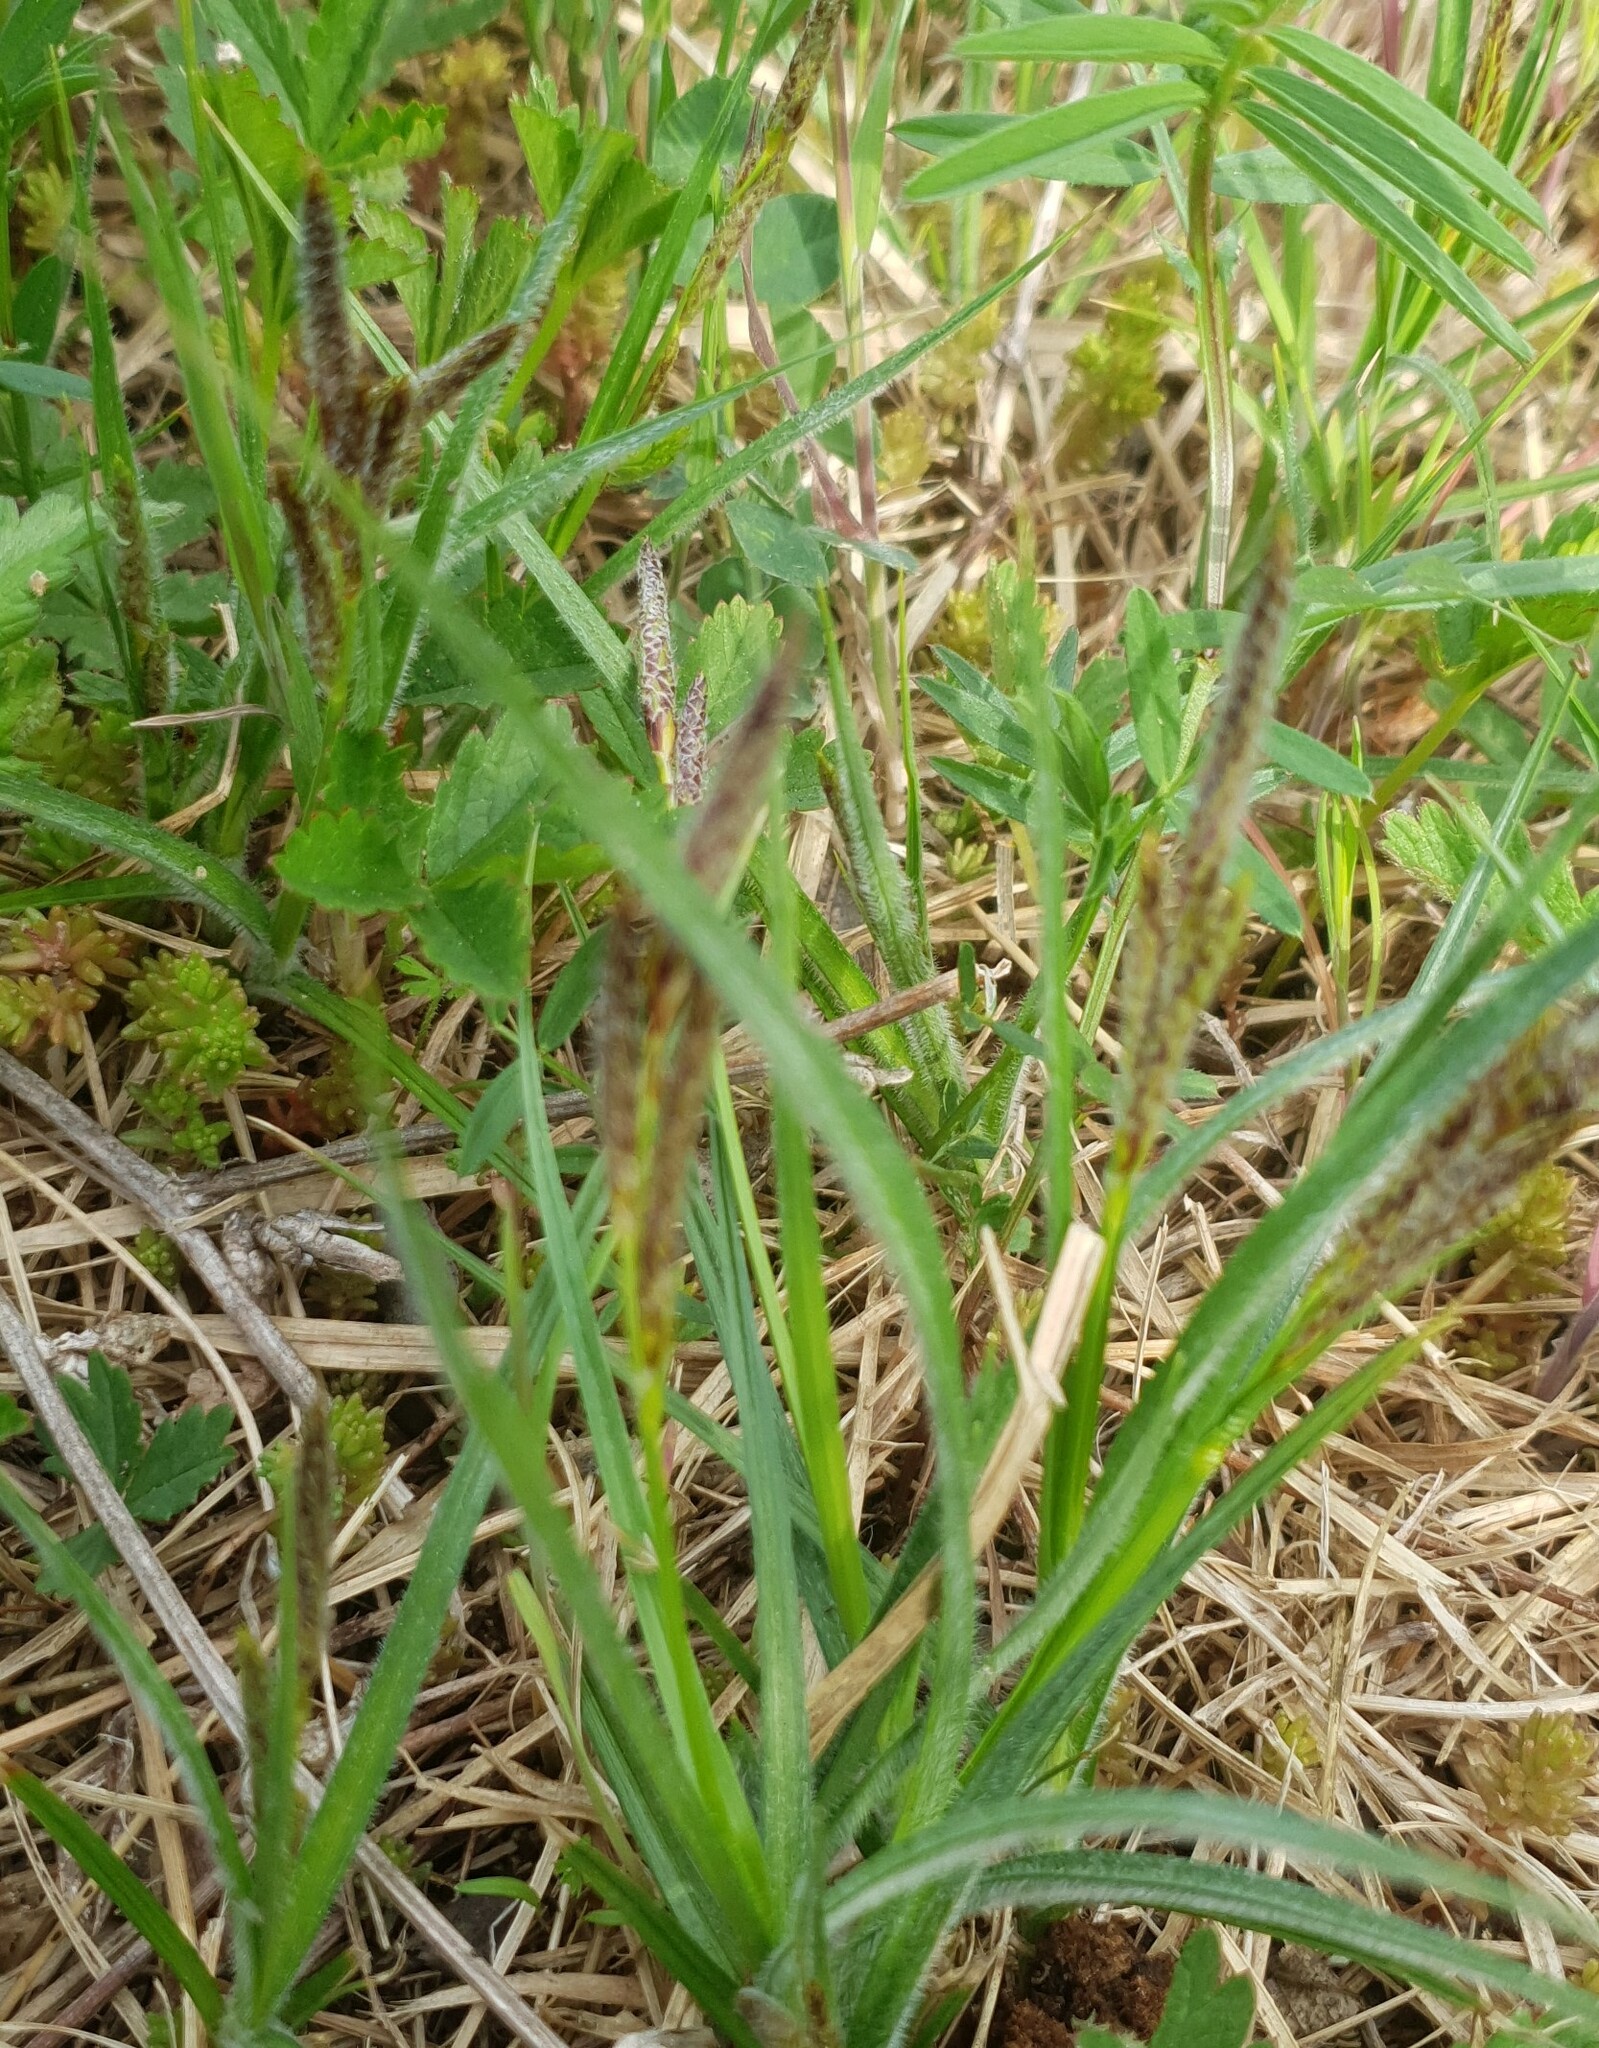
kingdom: Plantae
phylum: Tracheophyta
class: Liliopsida
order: Poales
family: Cyperaceae
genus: Carex
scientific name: Carex hirta
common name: Hairy sedge
